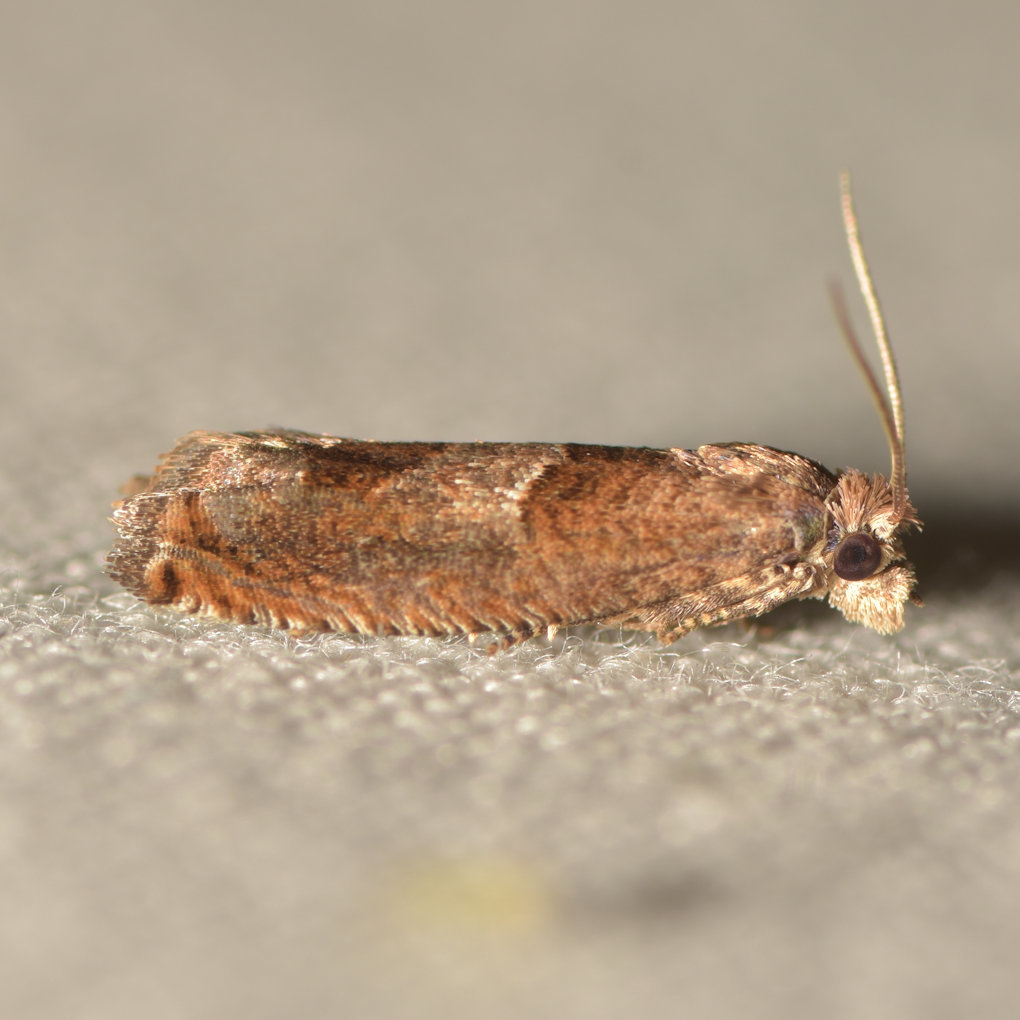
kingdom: Animalia
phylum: Arthropoda
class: Insecta
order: Lepidoptera
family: Tortricidae
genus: Sonia
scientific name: Sonia canadana
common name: Canadian sonia moth
